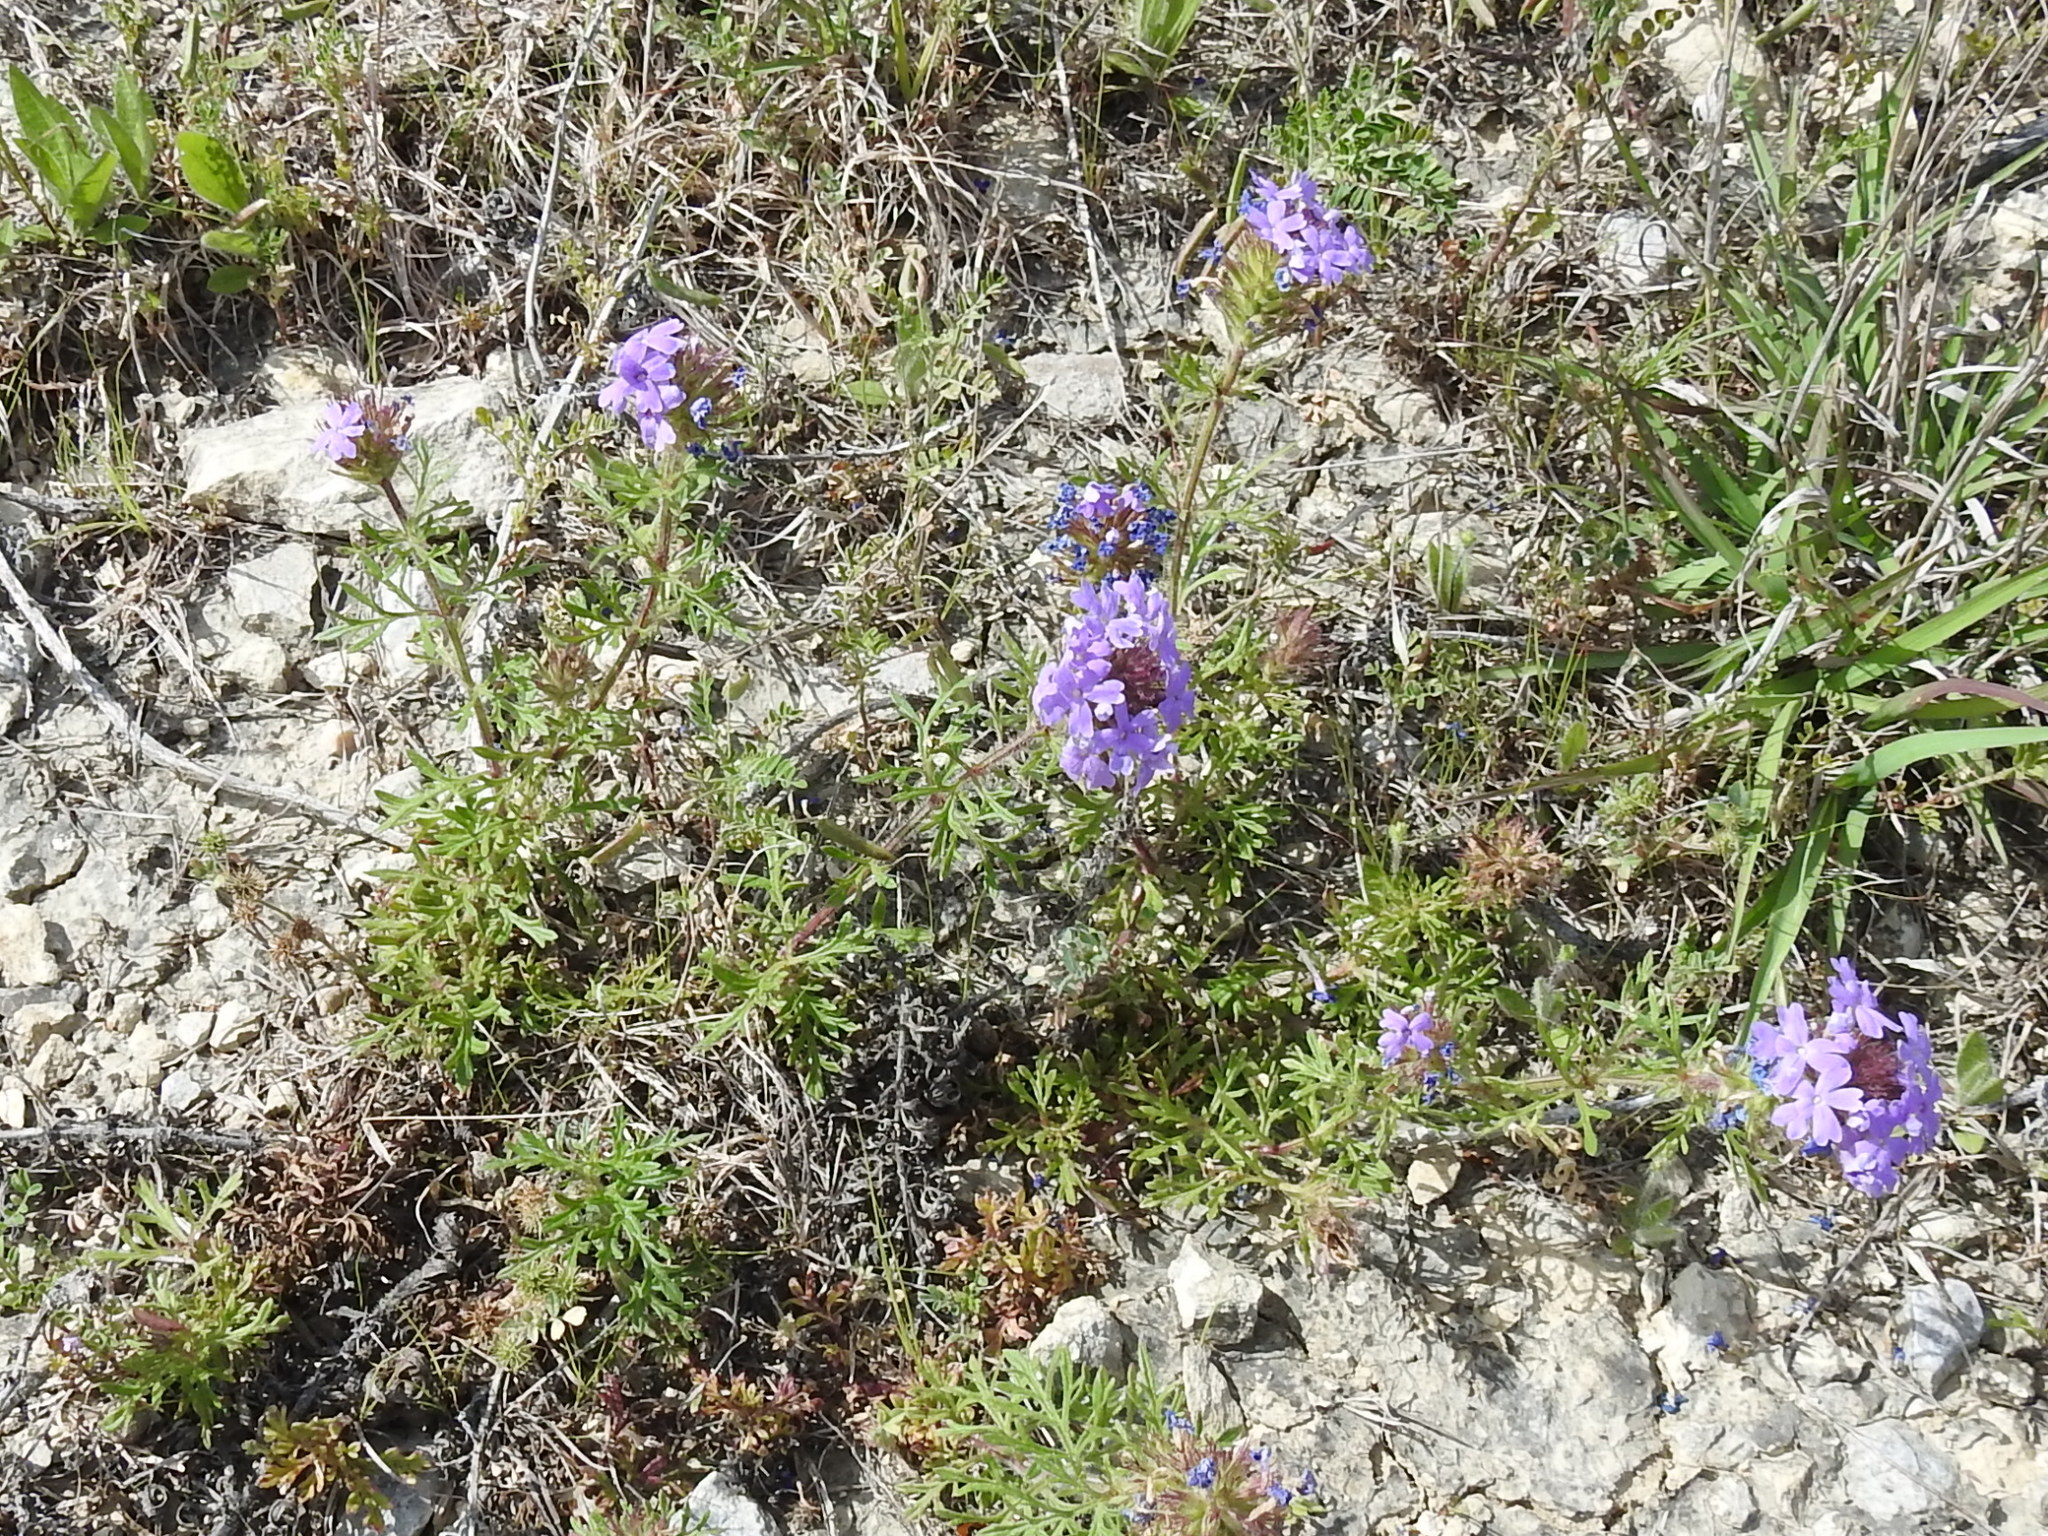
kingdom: Plantae
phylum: Tracheophyta
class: Magnoliopsida
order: Lamiales
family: Verbenaceae
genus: Verbena
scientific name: Verbena bipinnatifida
